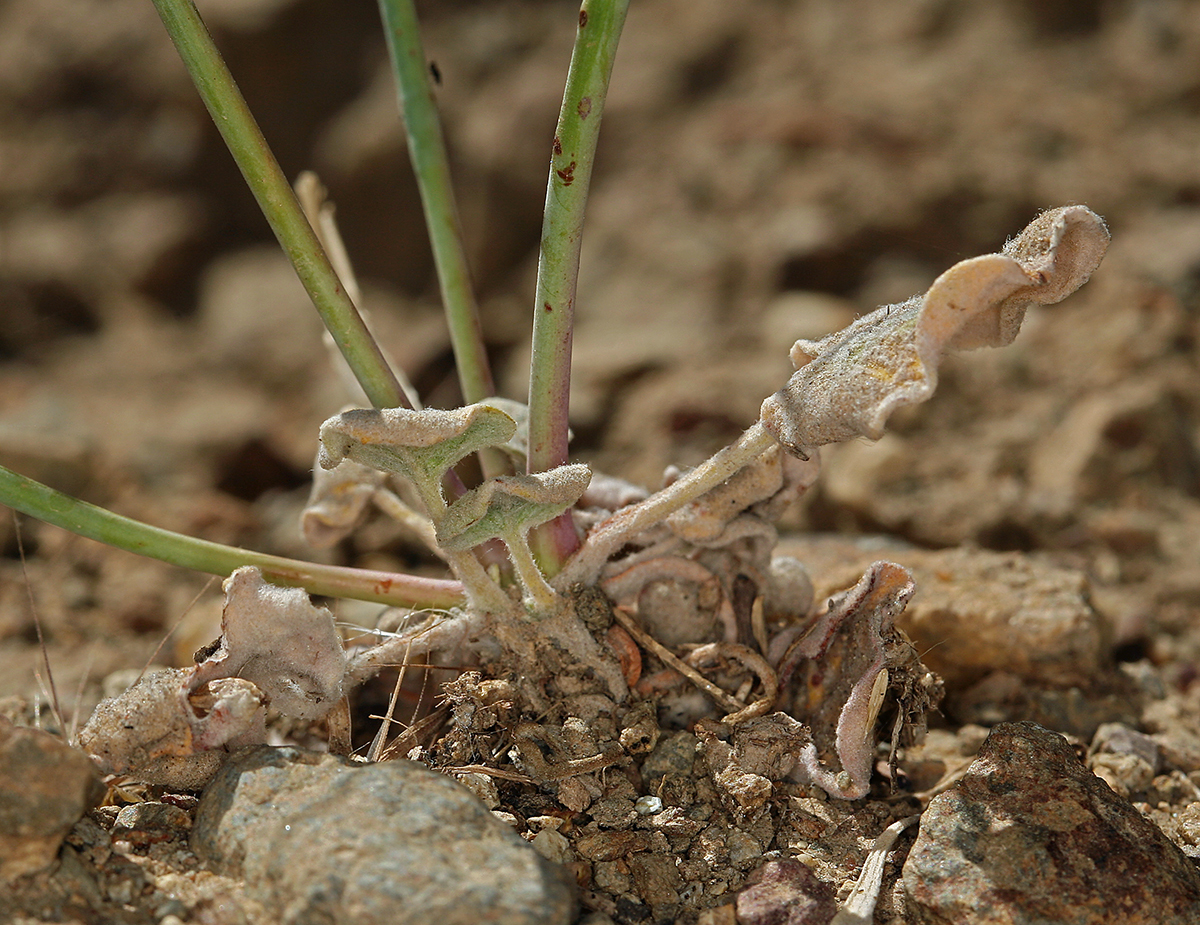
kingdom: Plantae
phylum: Tracheophyta
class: Magnoliopsida
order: Caryophyllales
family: Polygonaceae
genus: Eriogonum
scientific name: Eriogonum deflexum
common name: Skeleton-weed
